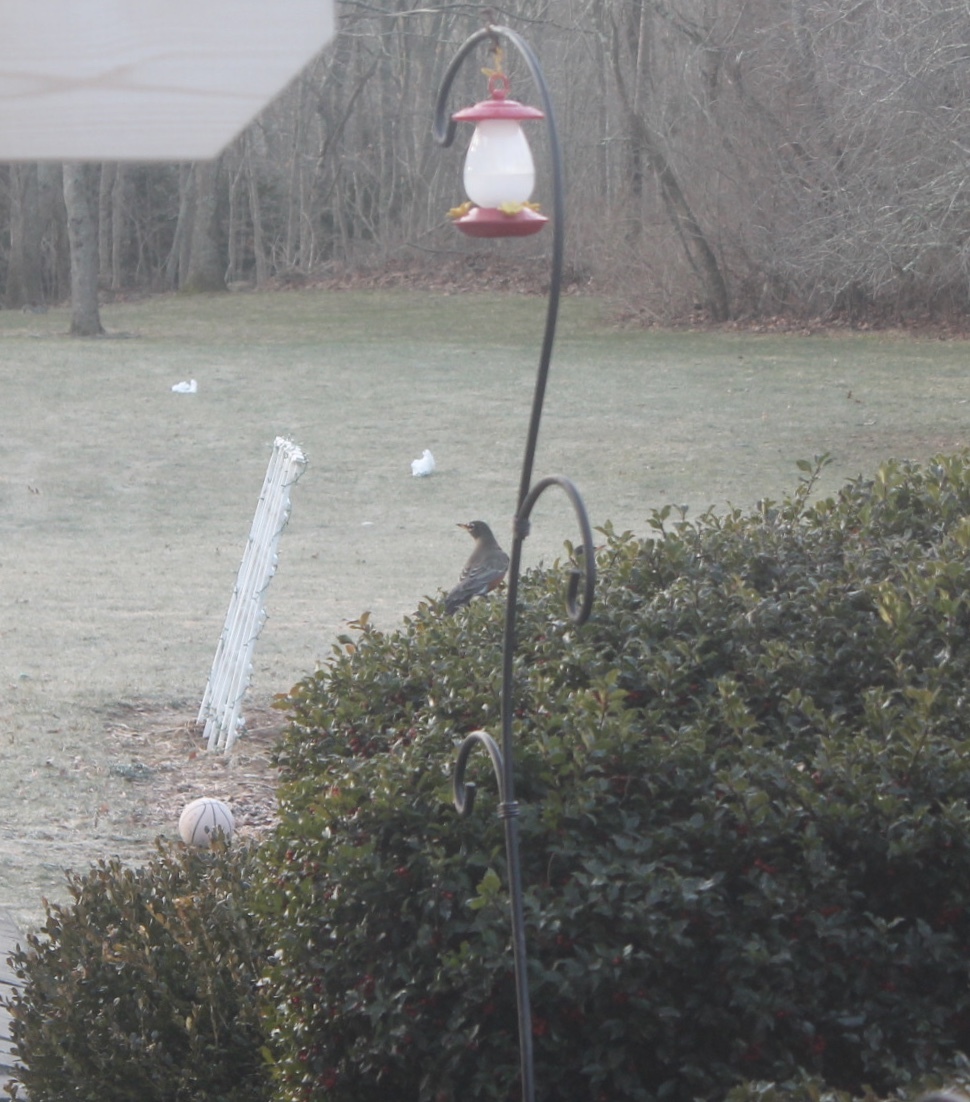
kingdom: Animalia
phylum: Chordata
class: Aves
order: Passeriformes
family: Turdidae
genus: Turdus
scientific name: Turdus migratorius
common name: American robin
